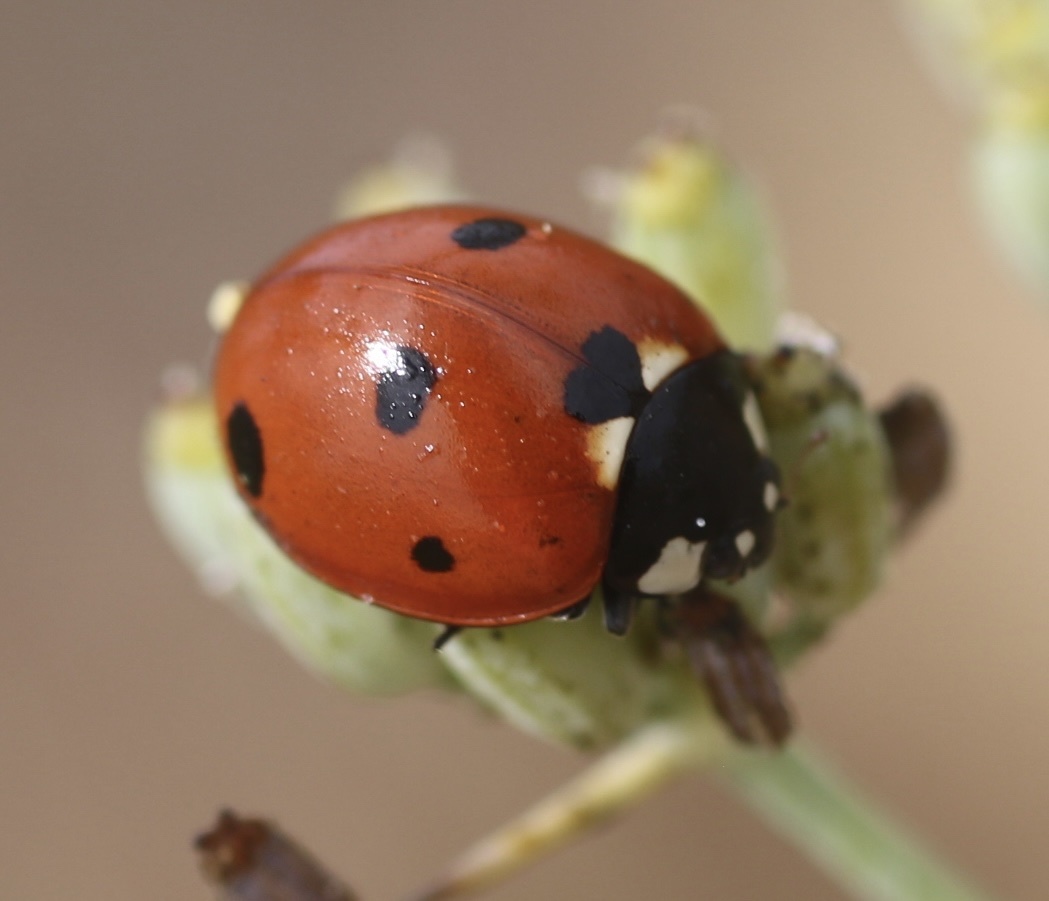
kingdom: Animalia
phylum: Arthropoda
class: Insecta
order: Coleoptera
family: Coccinellidae
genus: Coccinella
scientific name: Coccinella septempunctata
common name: Sevenspotted lady beetle
